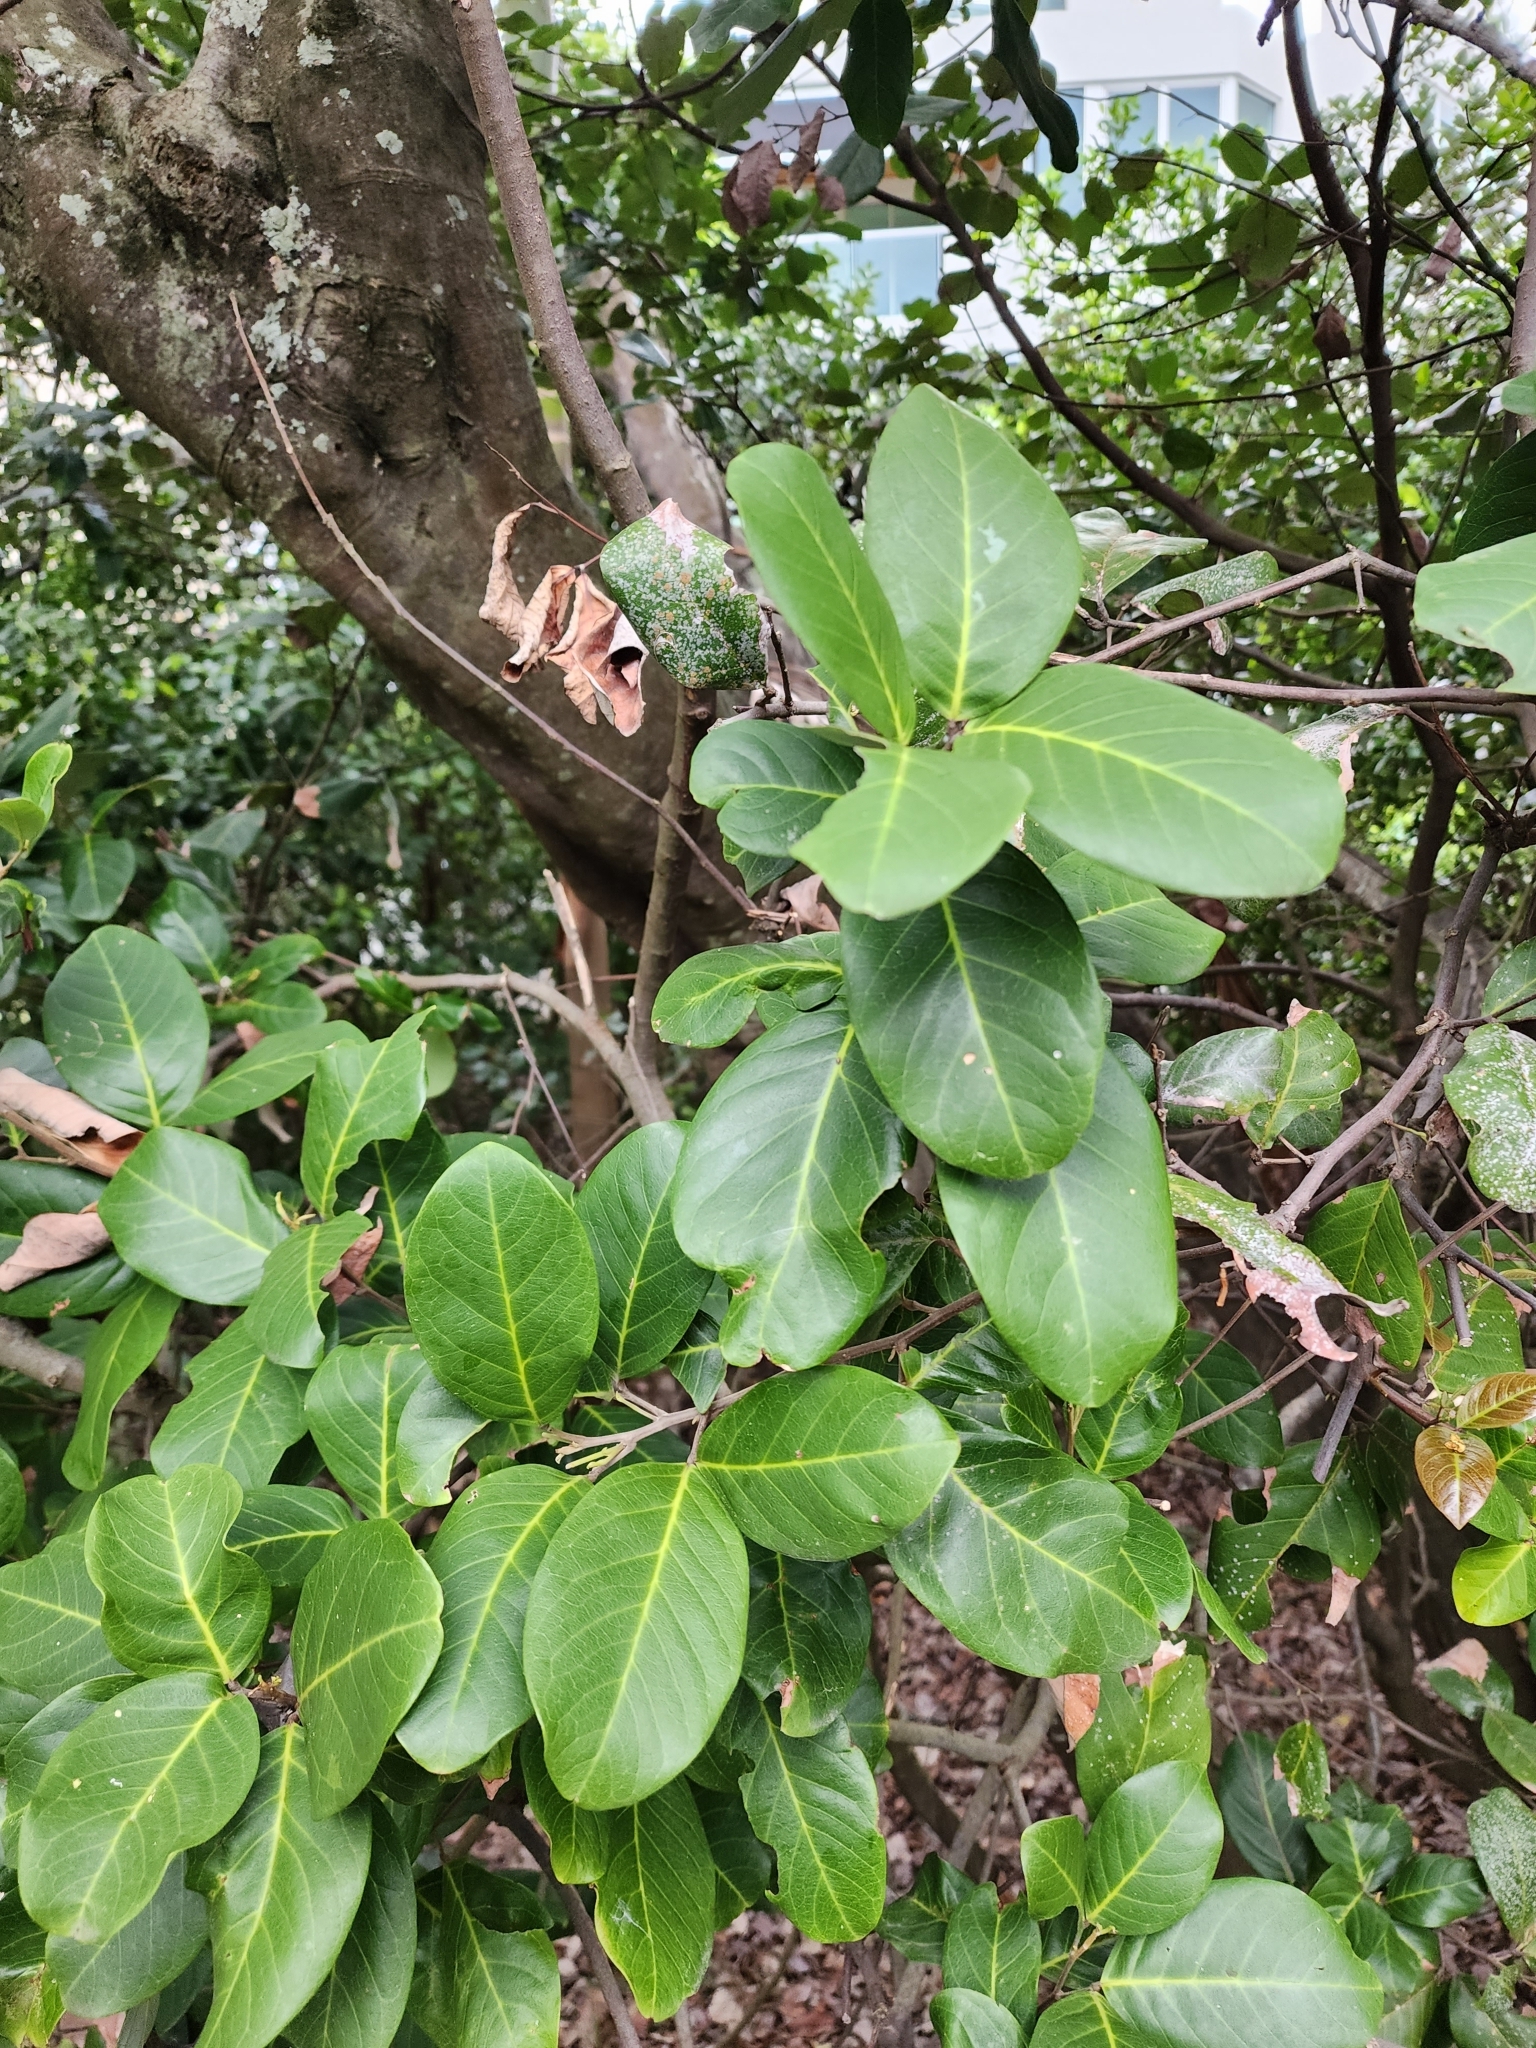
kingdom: Plantae
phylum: Tracheophyta
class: Magnoliopsida
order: Sapindales
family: Sapindaceae
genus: Alectryon
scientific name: Alectryon coriaceus
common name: Beach alectryon
